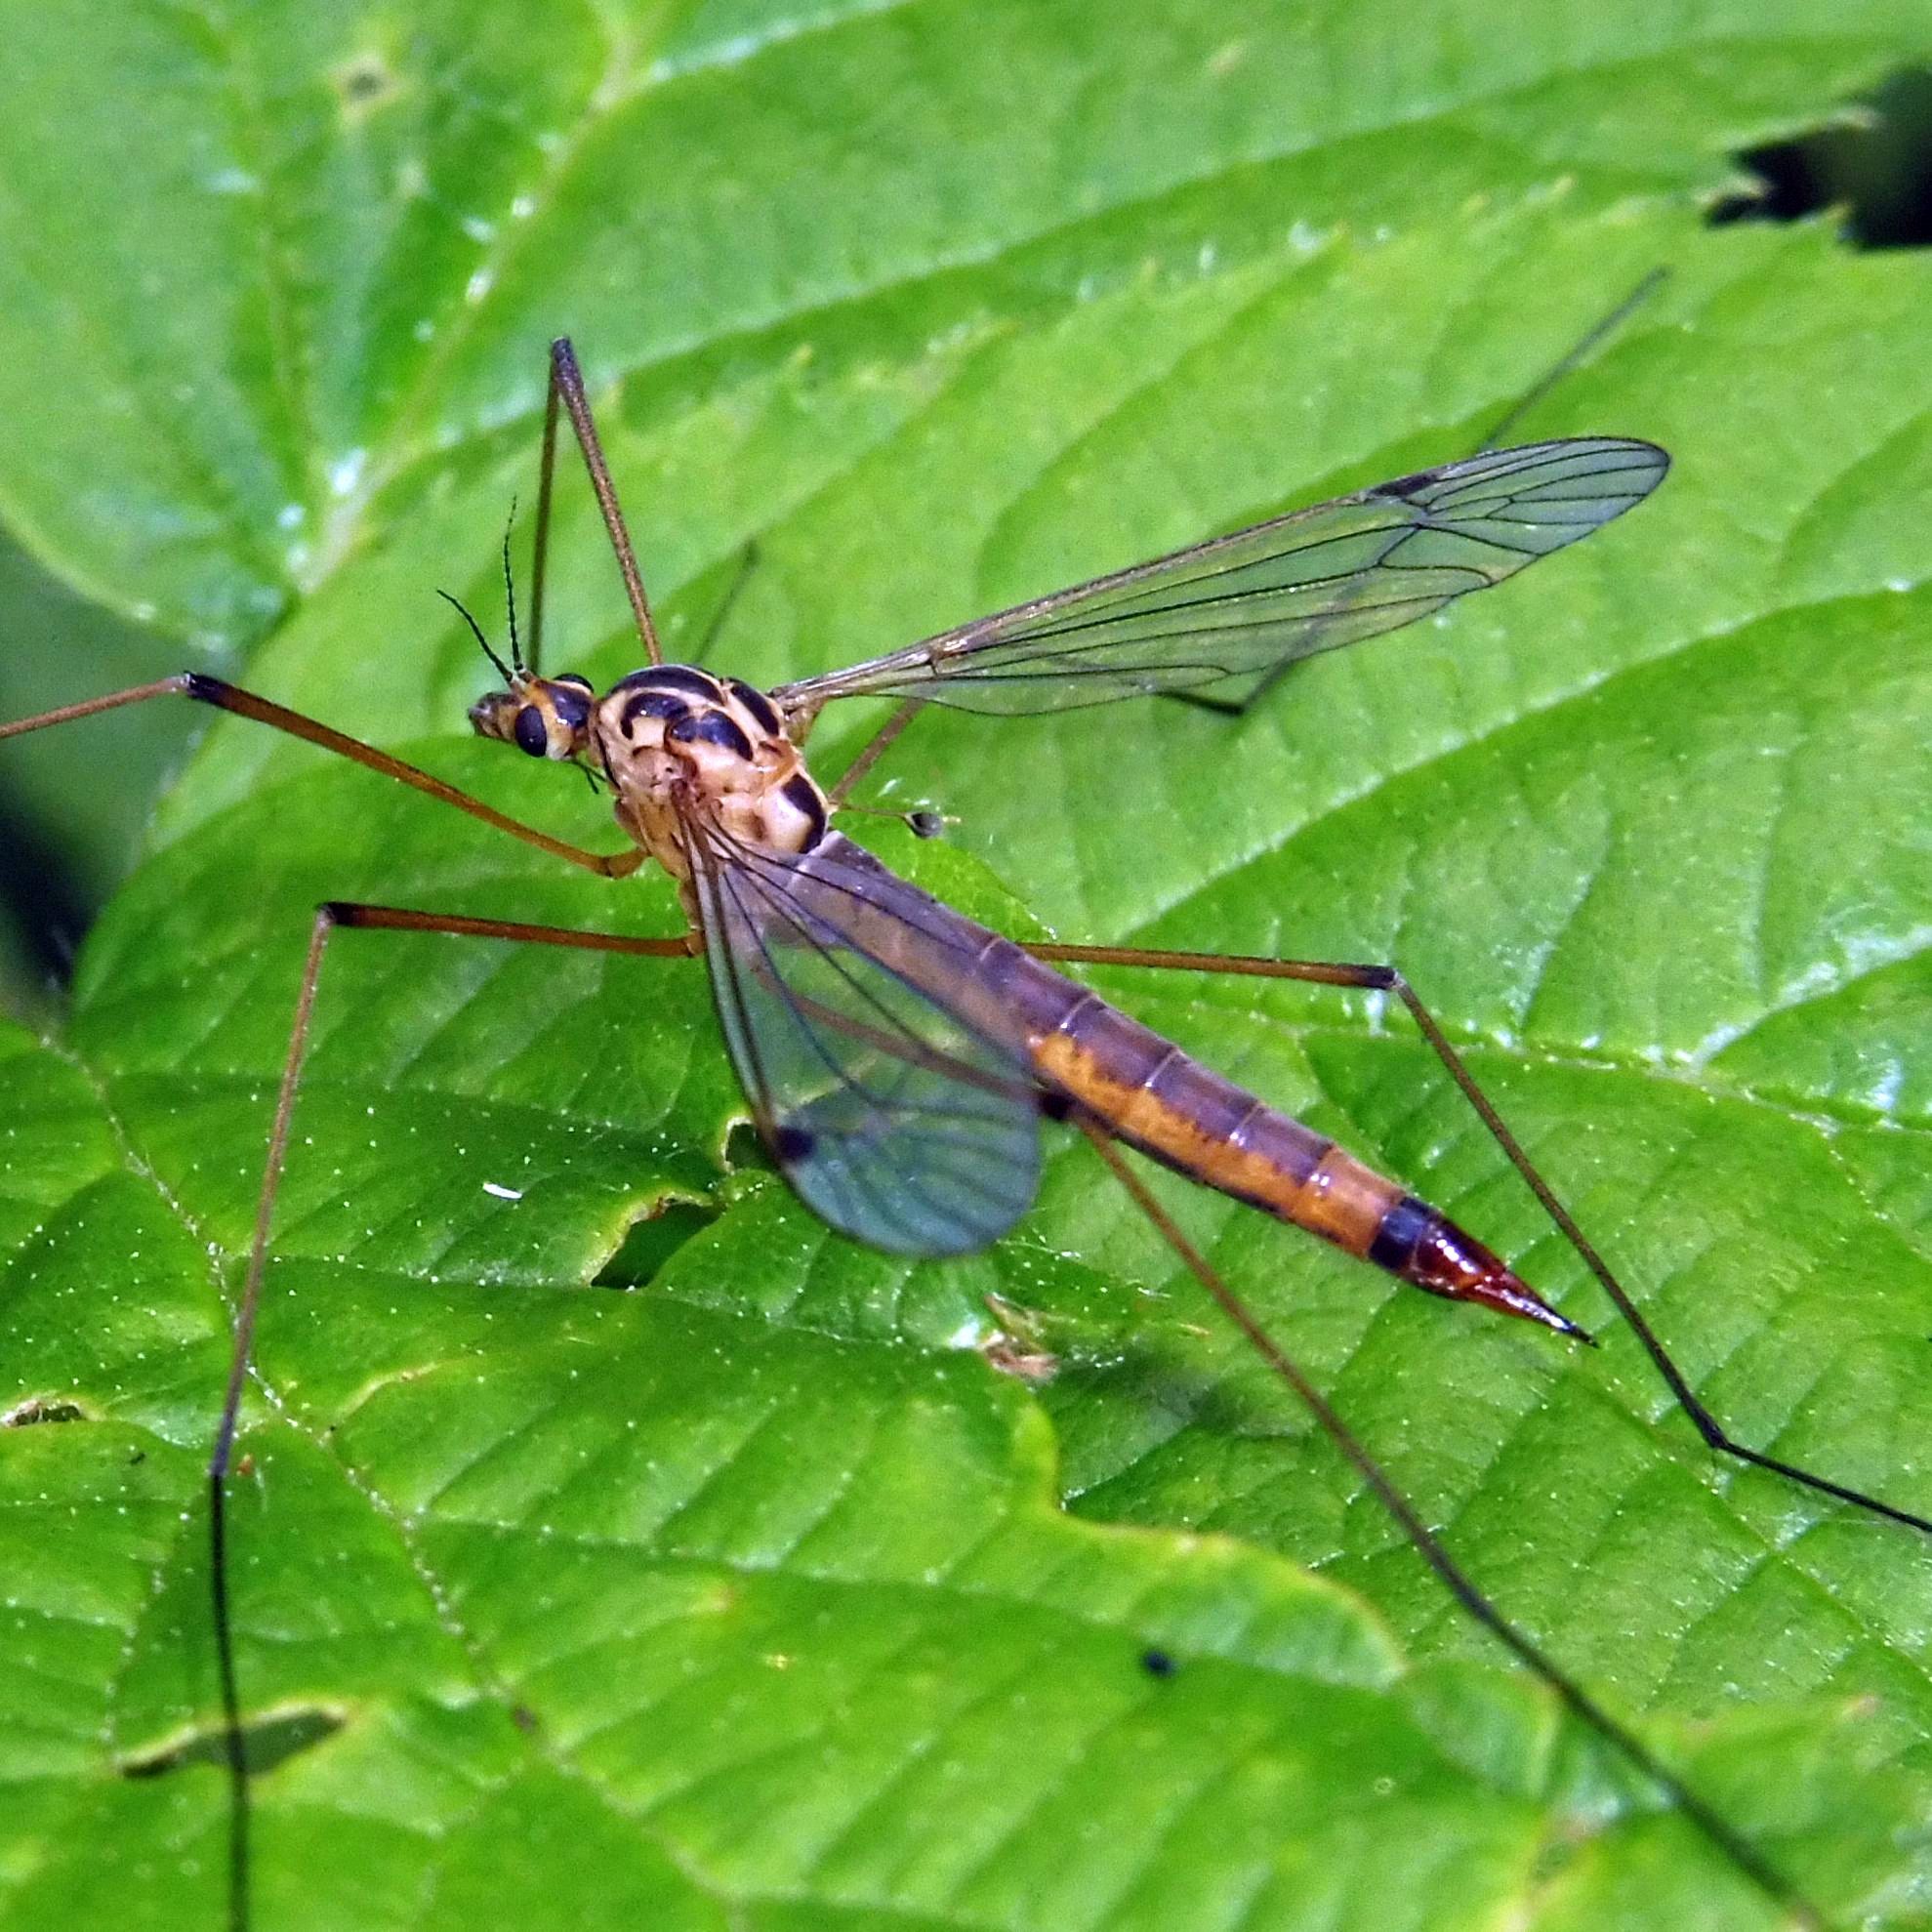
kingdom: Animalia
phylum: Arthropoda
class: Insecta
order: Diptera
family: Tipulidae
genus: Nephrotoma
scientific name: Nephrotoma cornicina
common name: Cranefly
